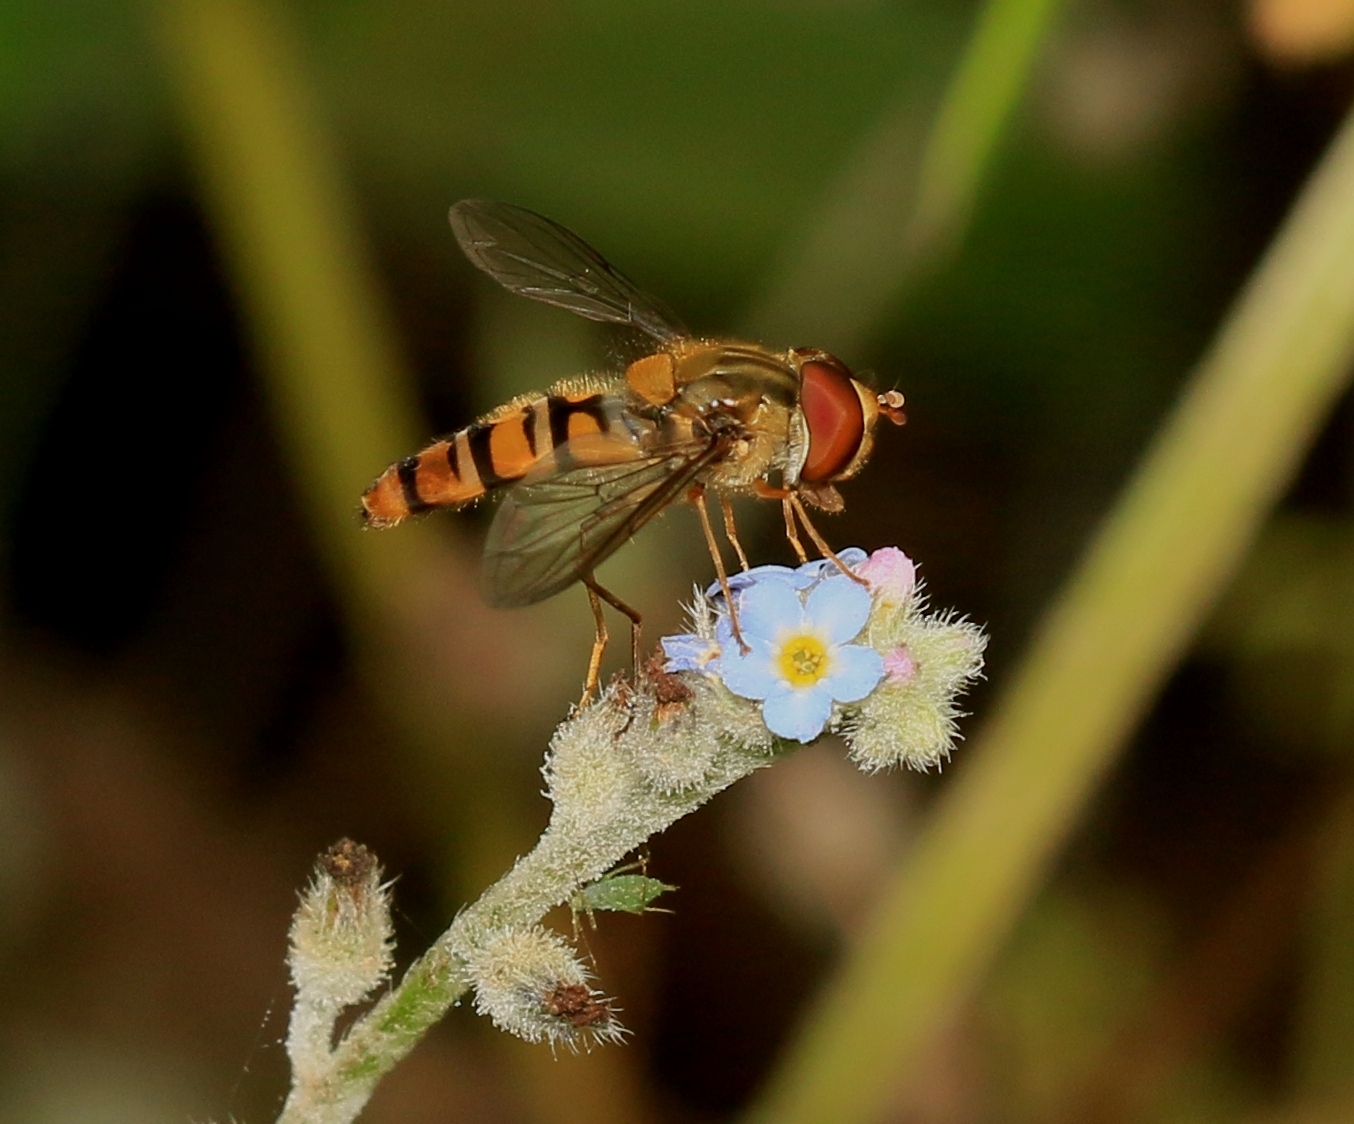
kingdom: Animalia
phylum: Arthropoda
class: Insecta
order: Diptera
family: Syrphidae
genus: Episyrphus
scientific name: Episyrphus balteatus
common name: Marmalade hoverfly
